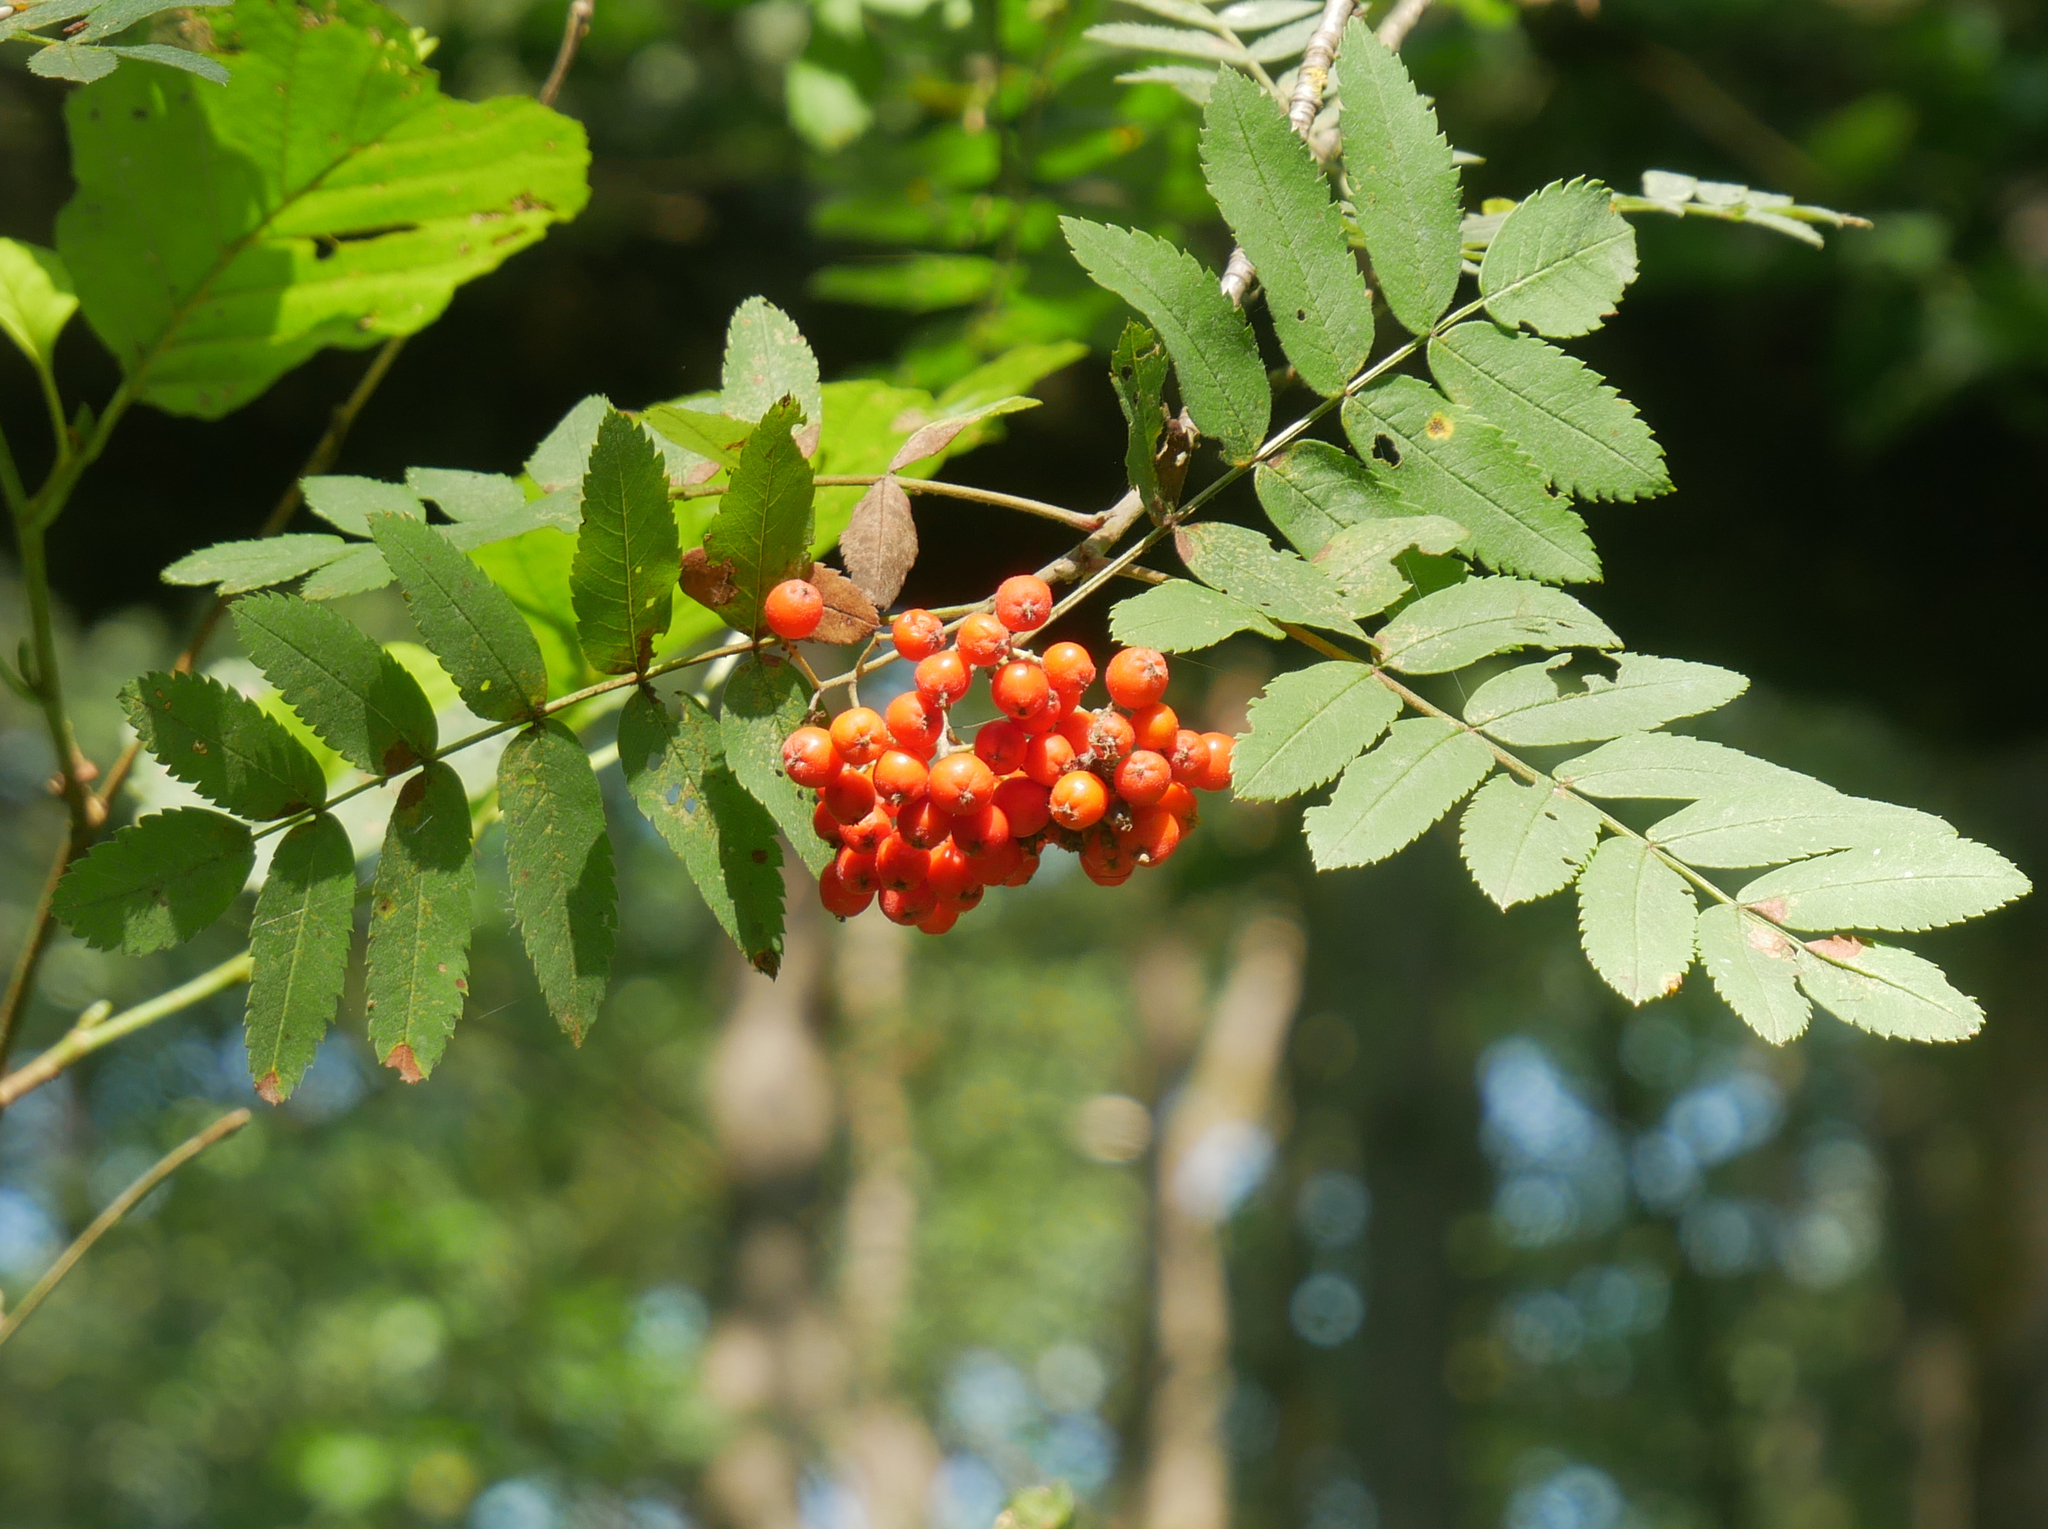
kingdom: Plantae
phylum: Tracheophyta
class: Magnoliopsida
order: Rosales
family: Rosaceae
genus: Sorbus
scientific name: Sorbus aucuparia
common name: Rowan
